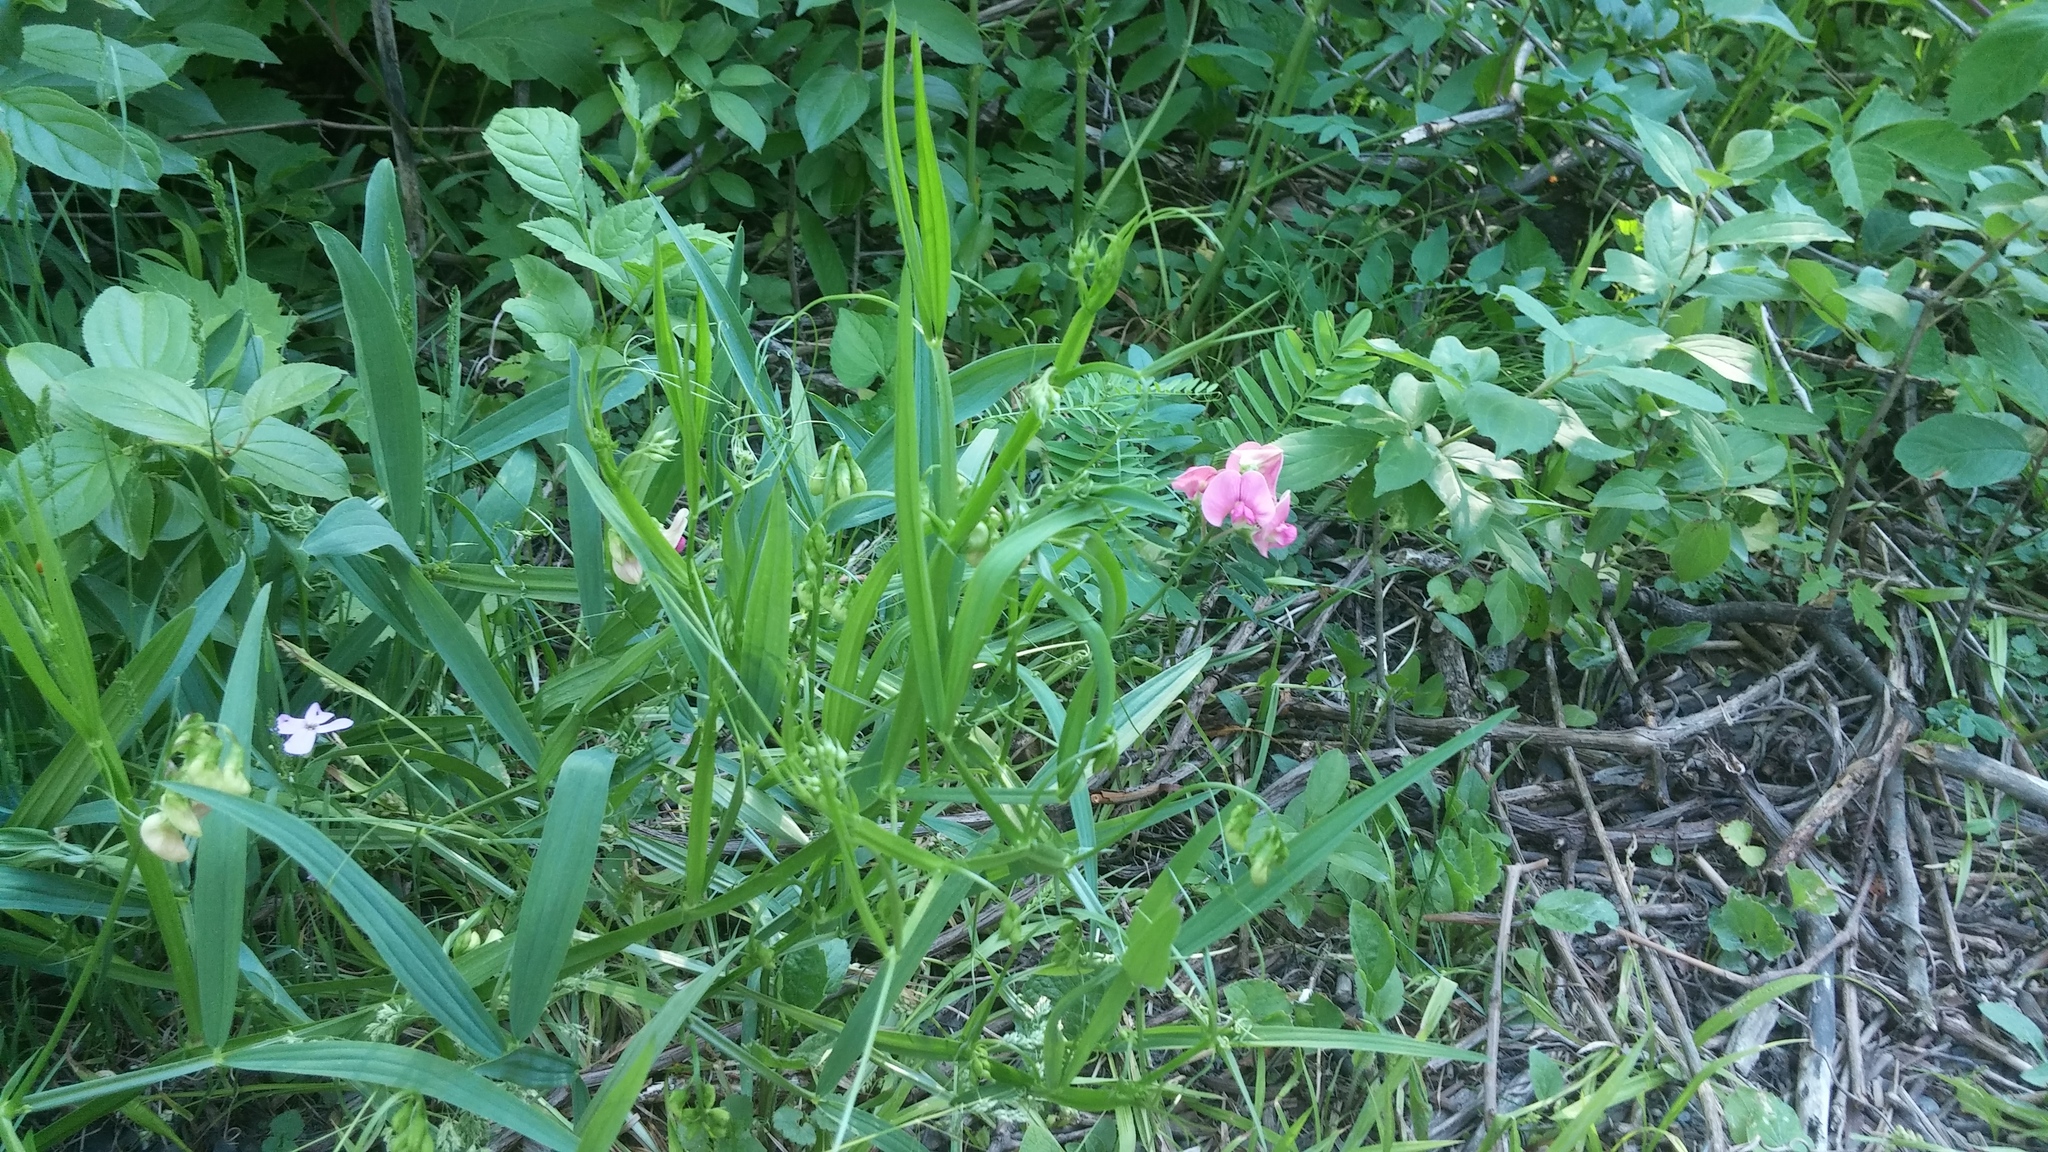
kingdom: Plantae
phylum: Tracheophyta
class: Magnoliopsida
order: Fabales
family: Fabaceae
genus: Lathyrus
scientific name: Lathyrus sylvestris
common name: Flat pea
